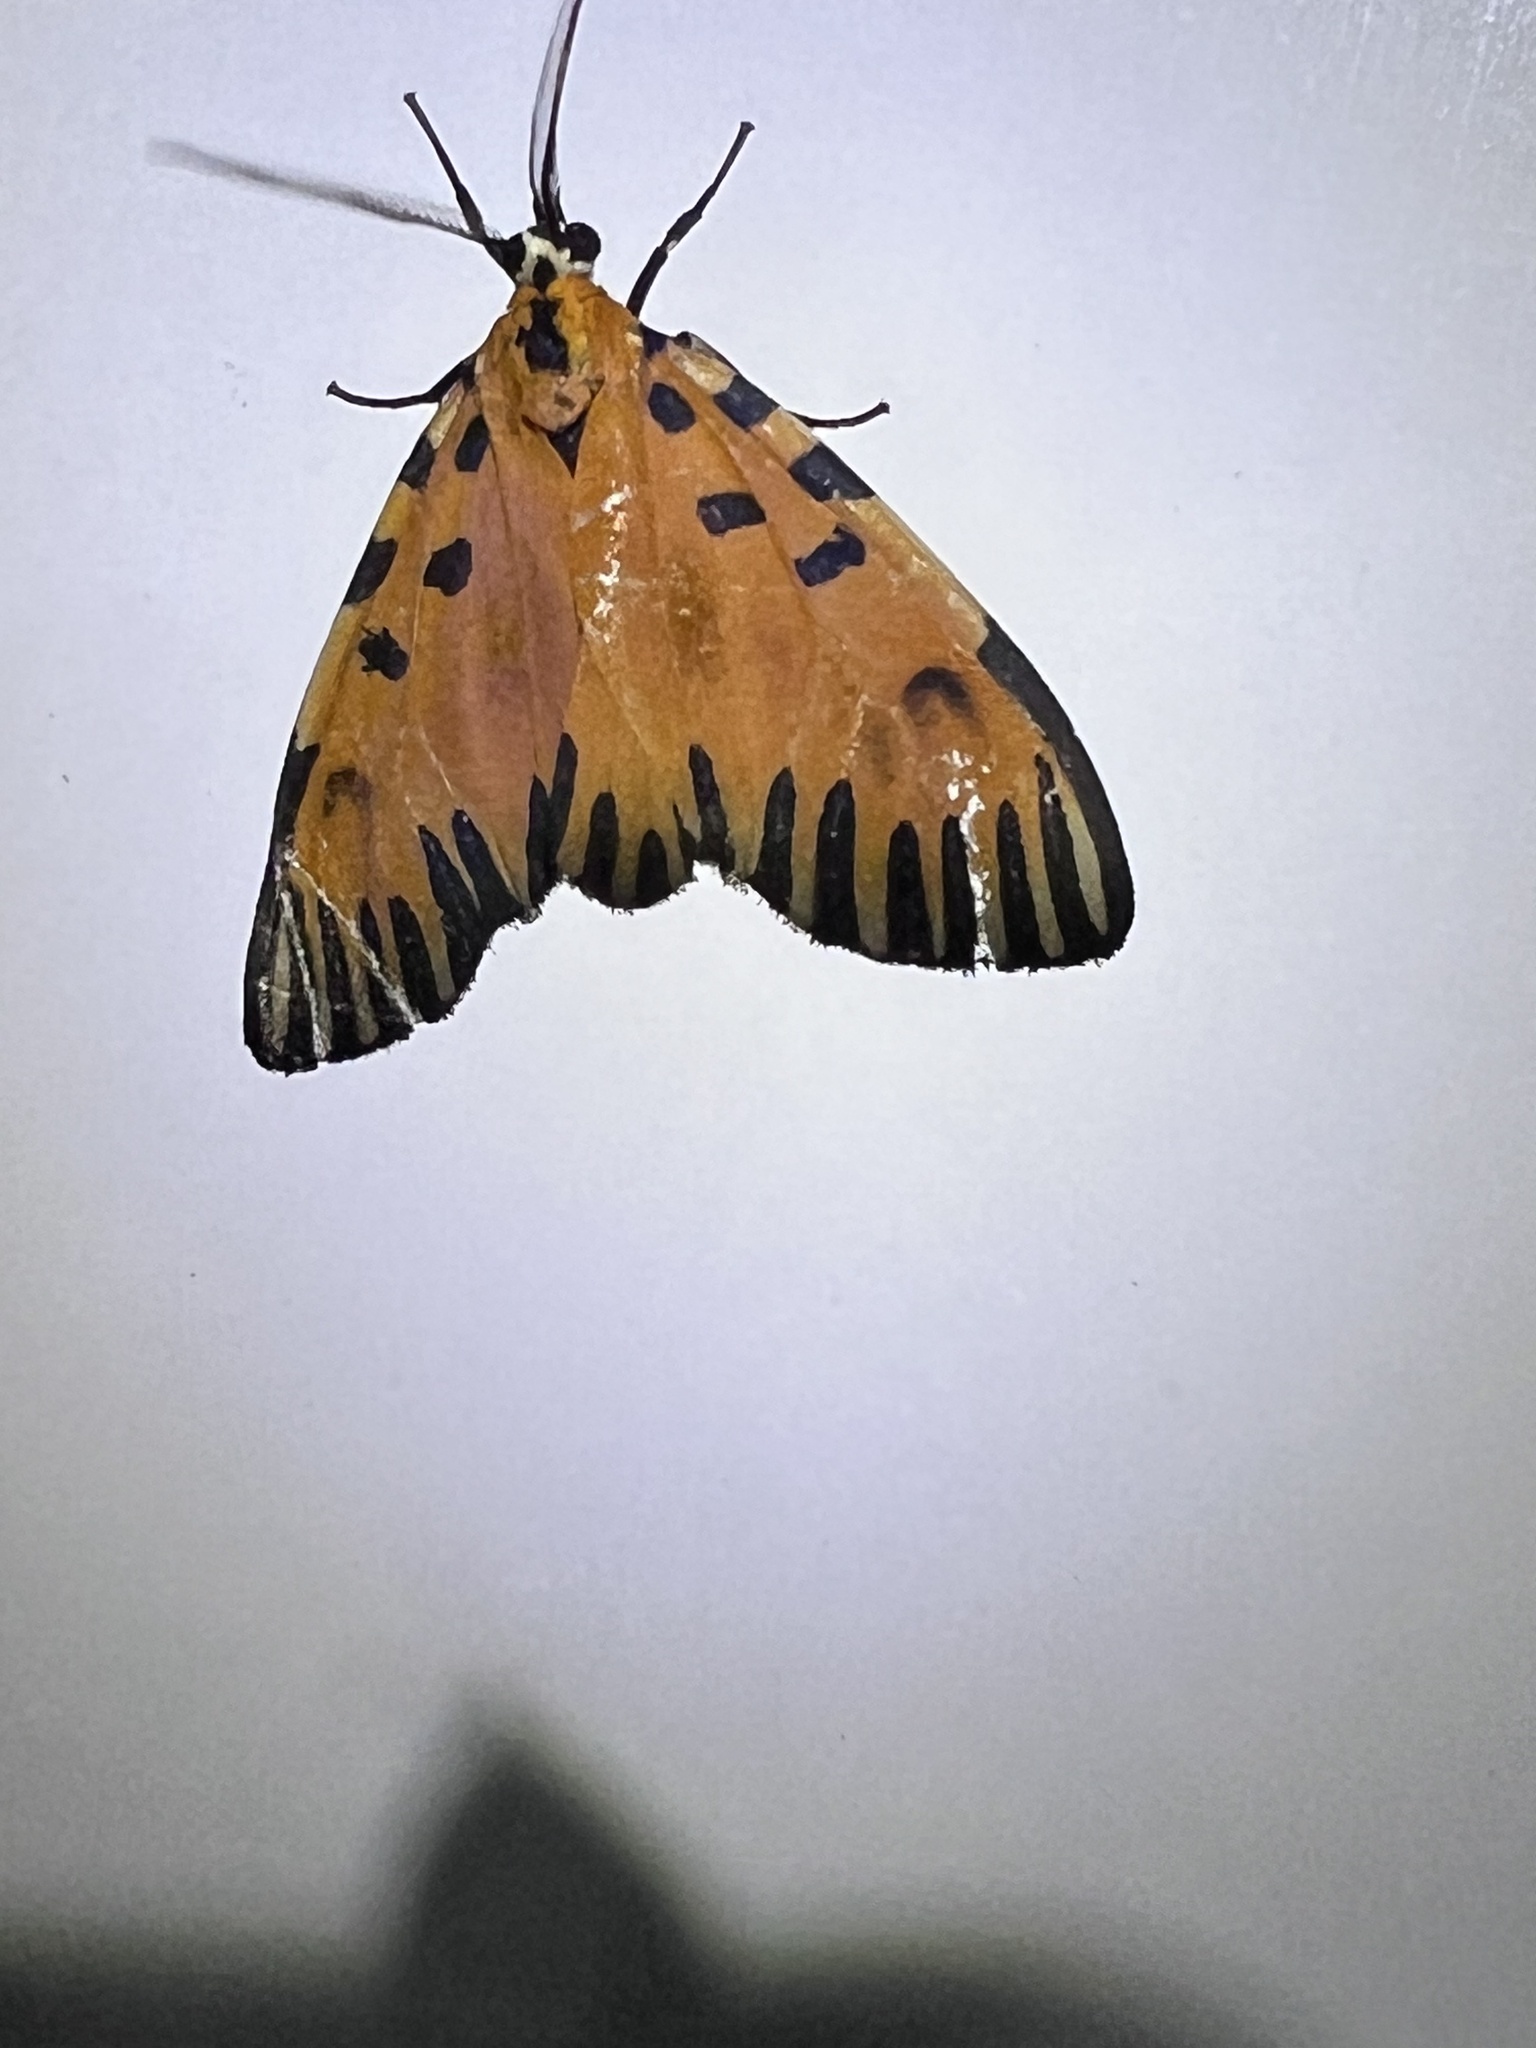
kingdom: Animalia
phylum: Arthropoda
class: Insecta
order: Lepidoptera
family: Erebidae
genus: Mesenochroa
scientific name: Mesenochroa rogersi
